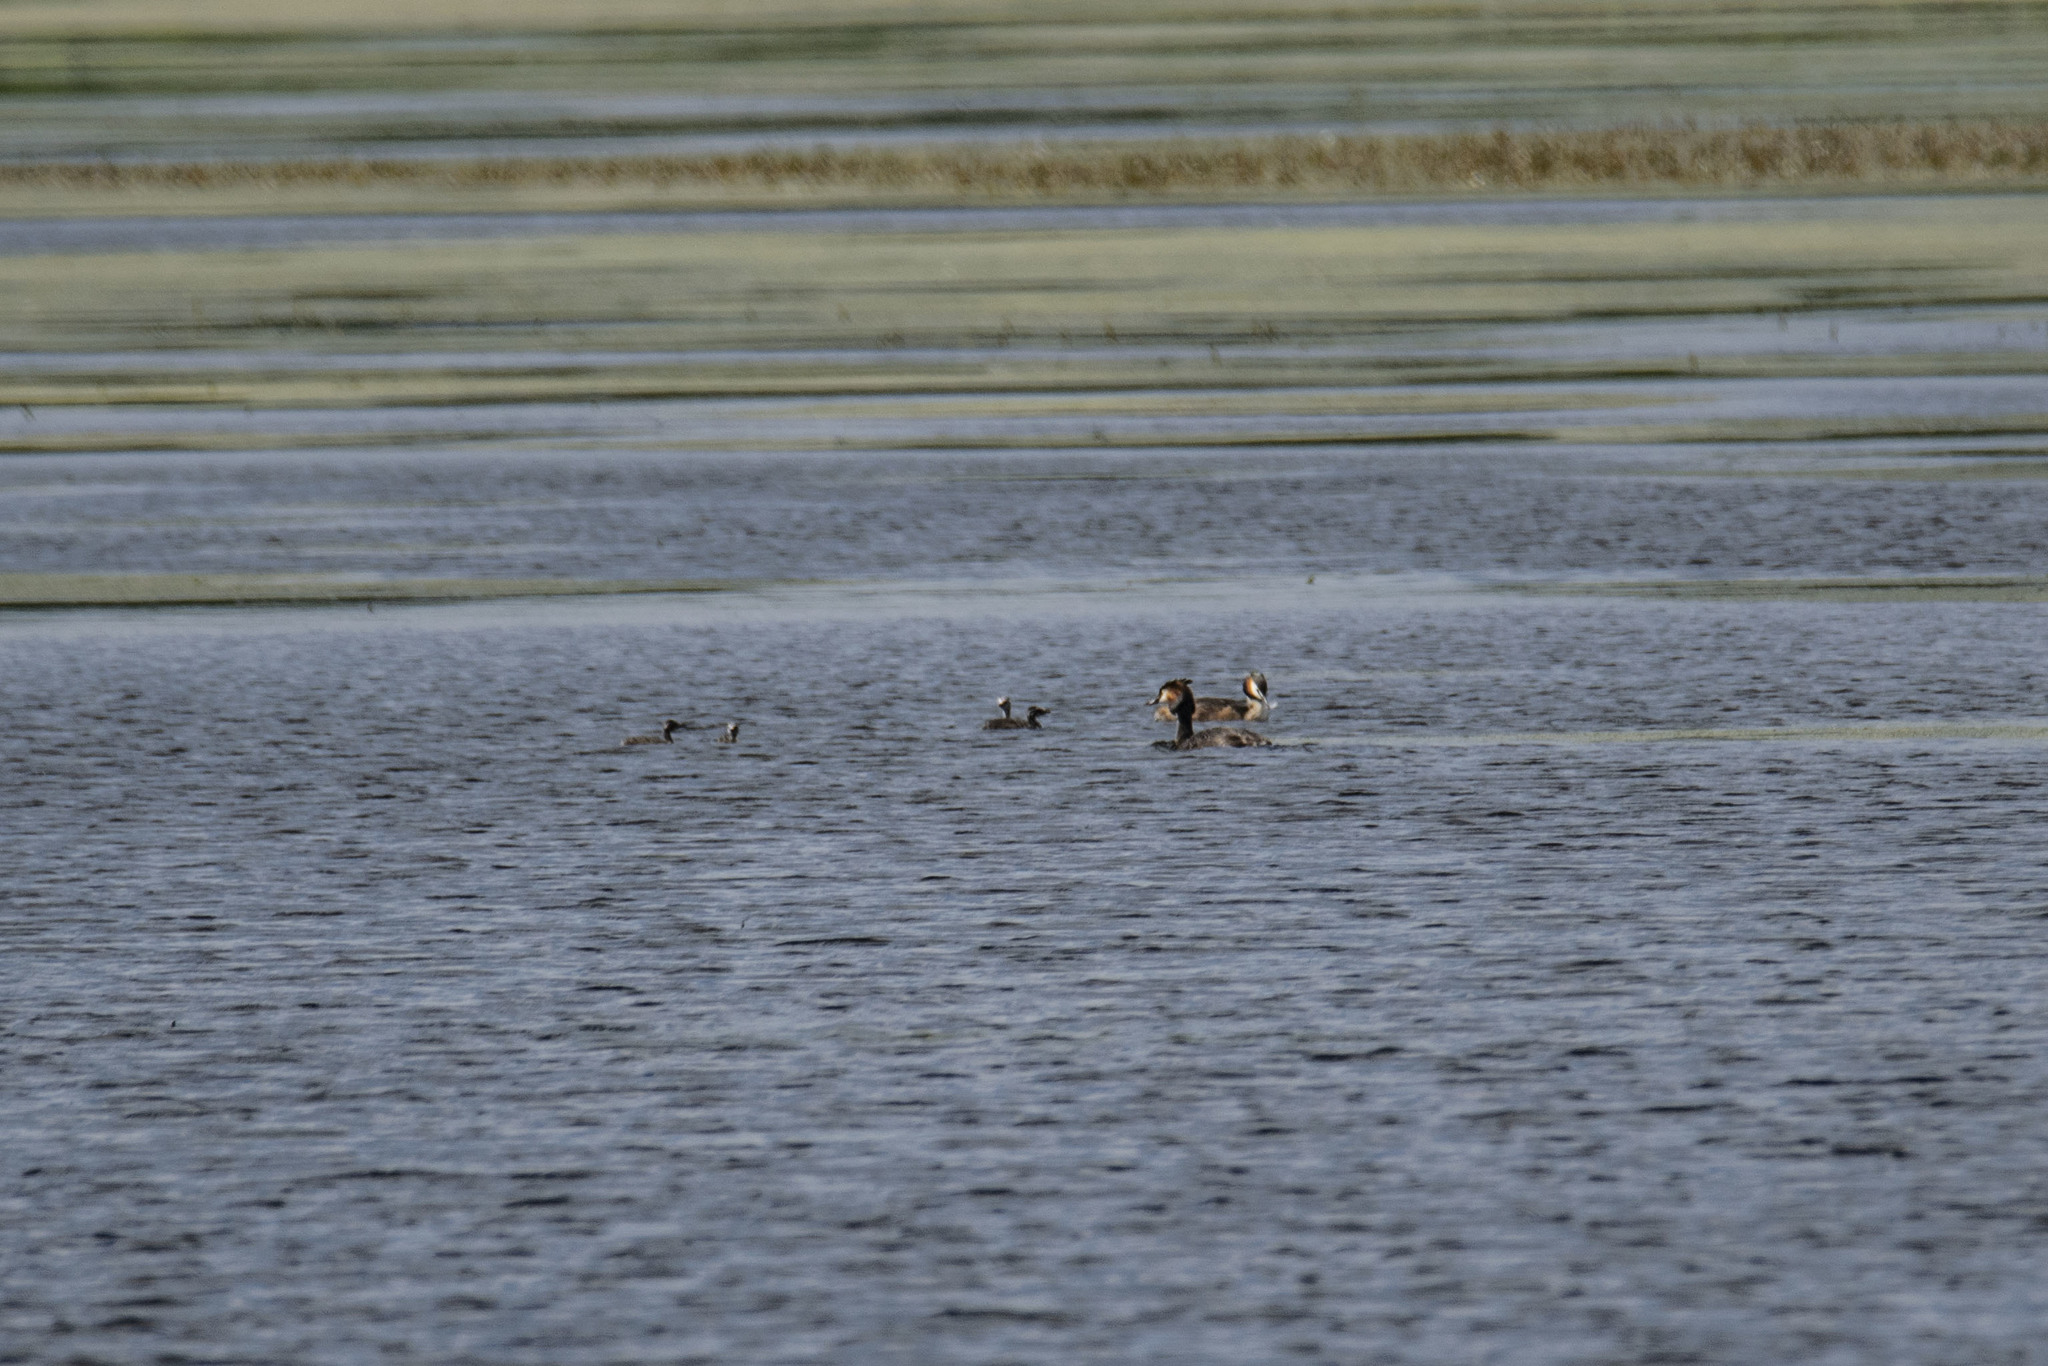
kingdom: Animalia
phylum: Chordata
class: Aves
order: Podicipediformes
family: Podicipedidae
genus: Podiceps
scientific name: Podiceps cristatus
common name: Great crested grebe
